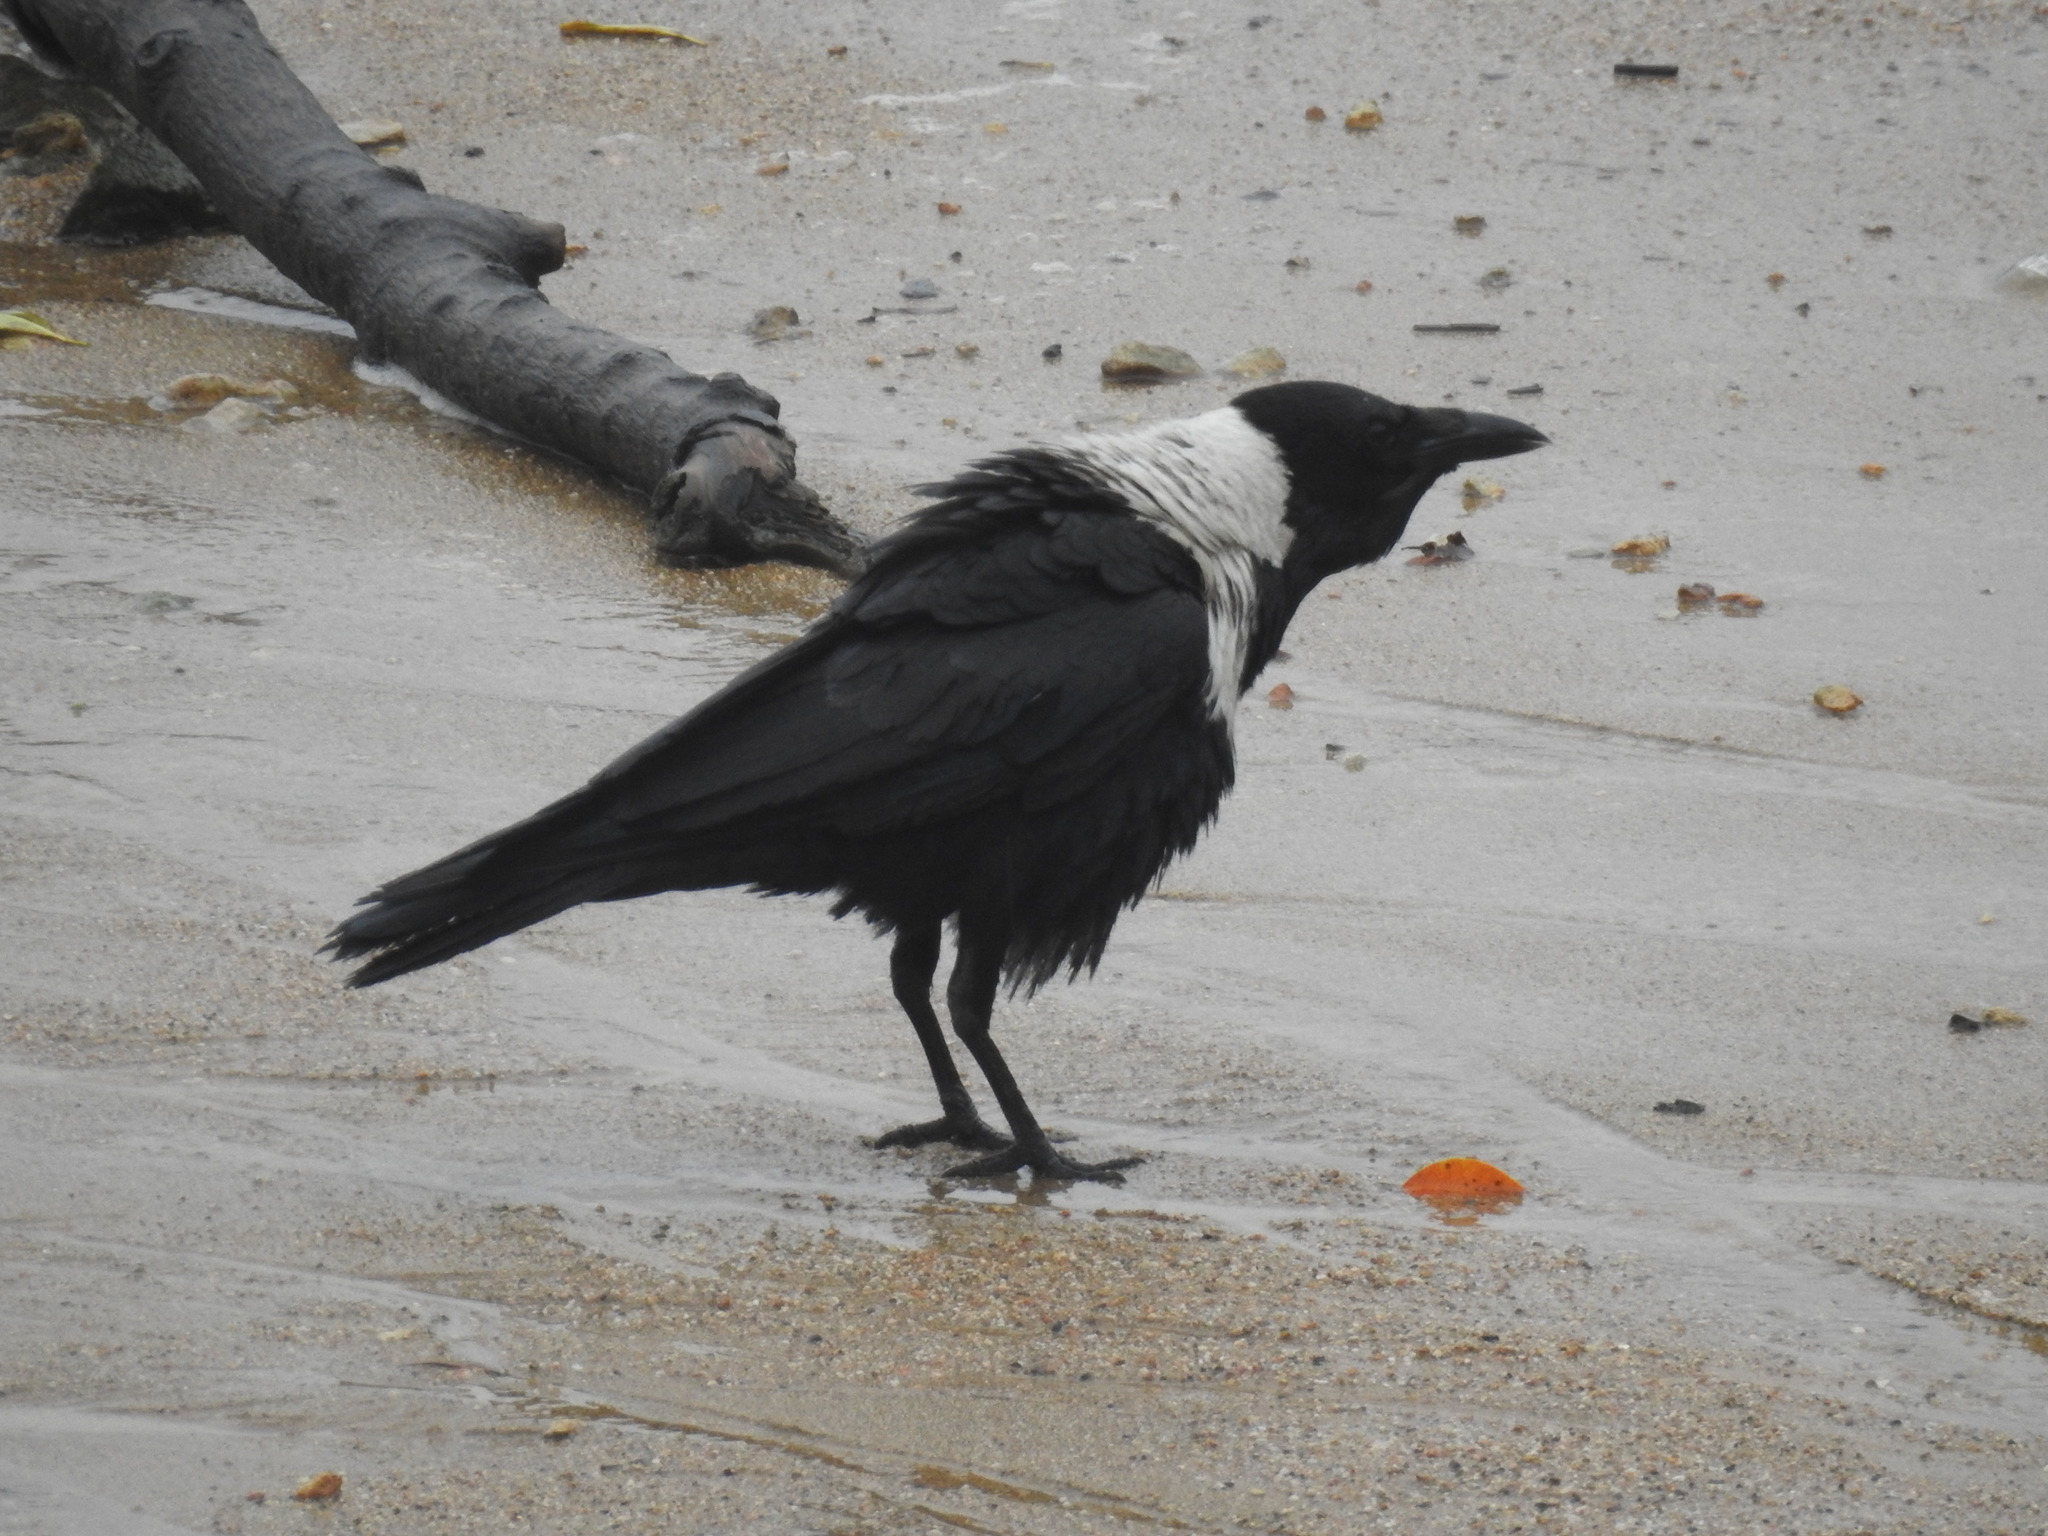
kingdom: Animalia
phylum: Chordata
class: Aves
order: Passeriformes
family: Corvidae
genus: Corvus
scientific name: Corvus pectoralis
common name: Collared crow
